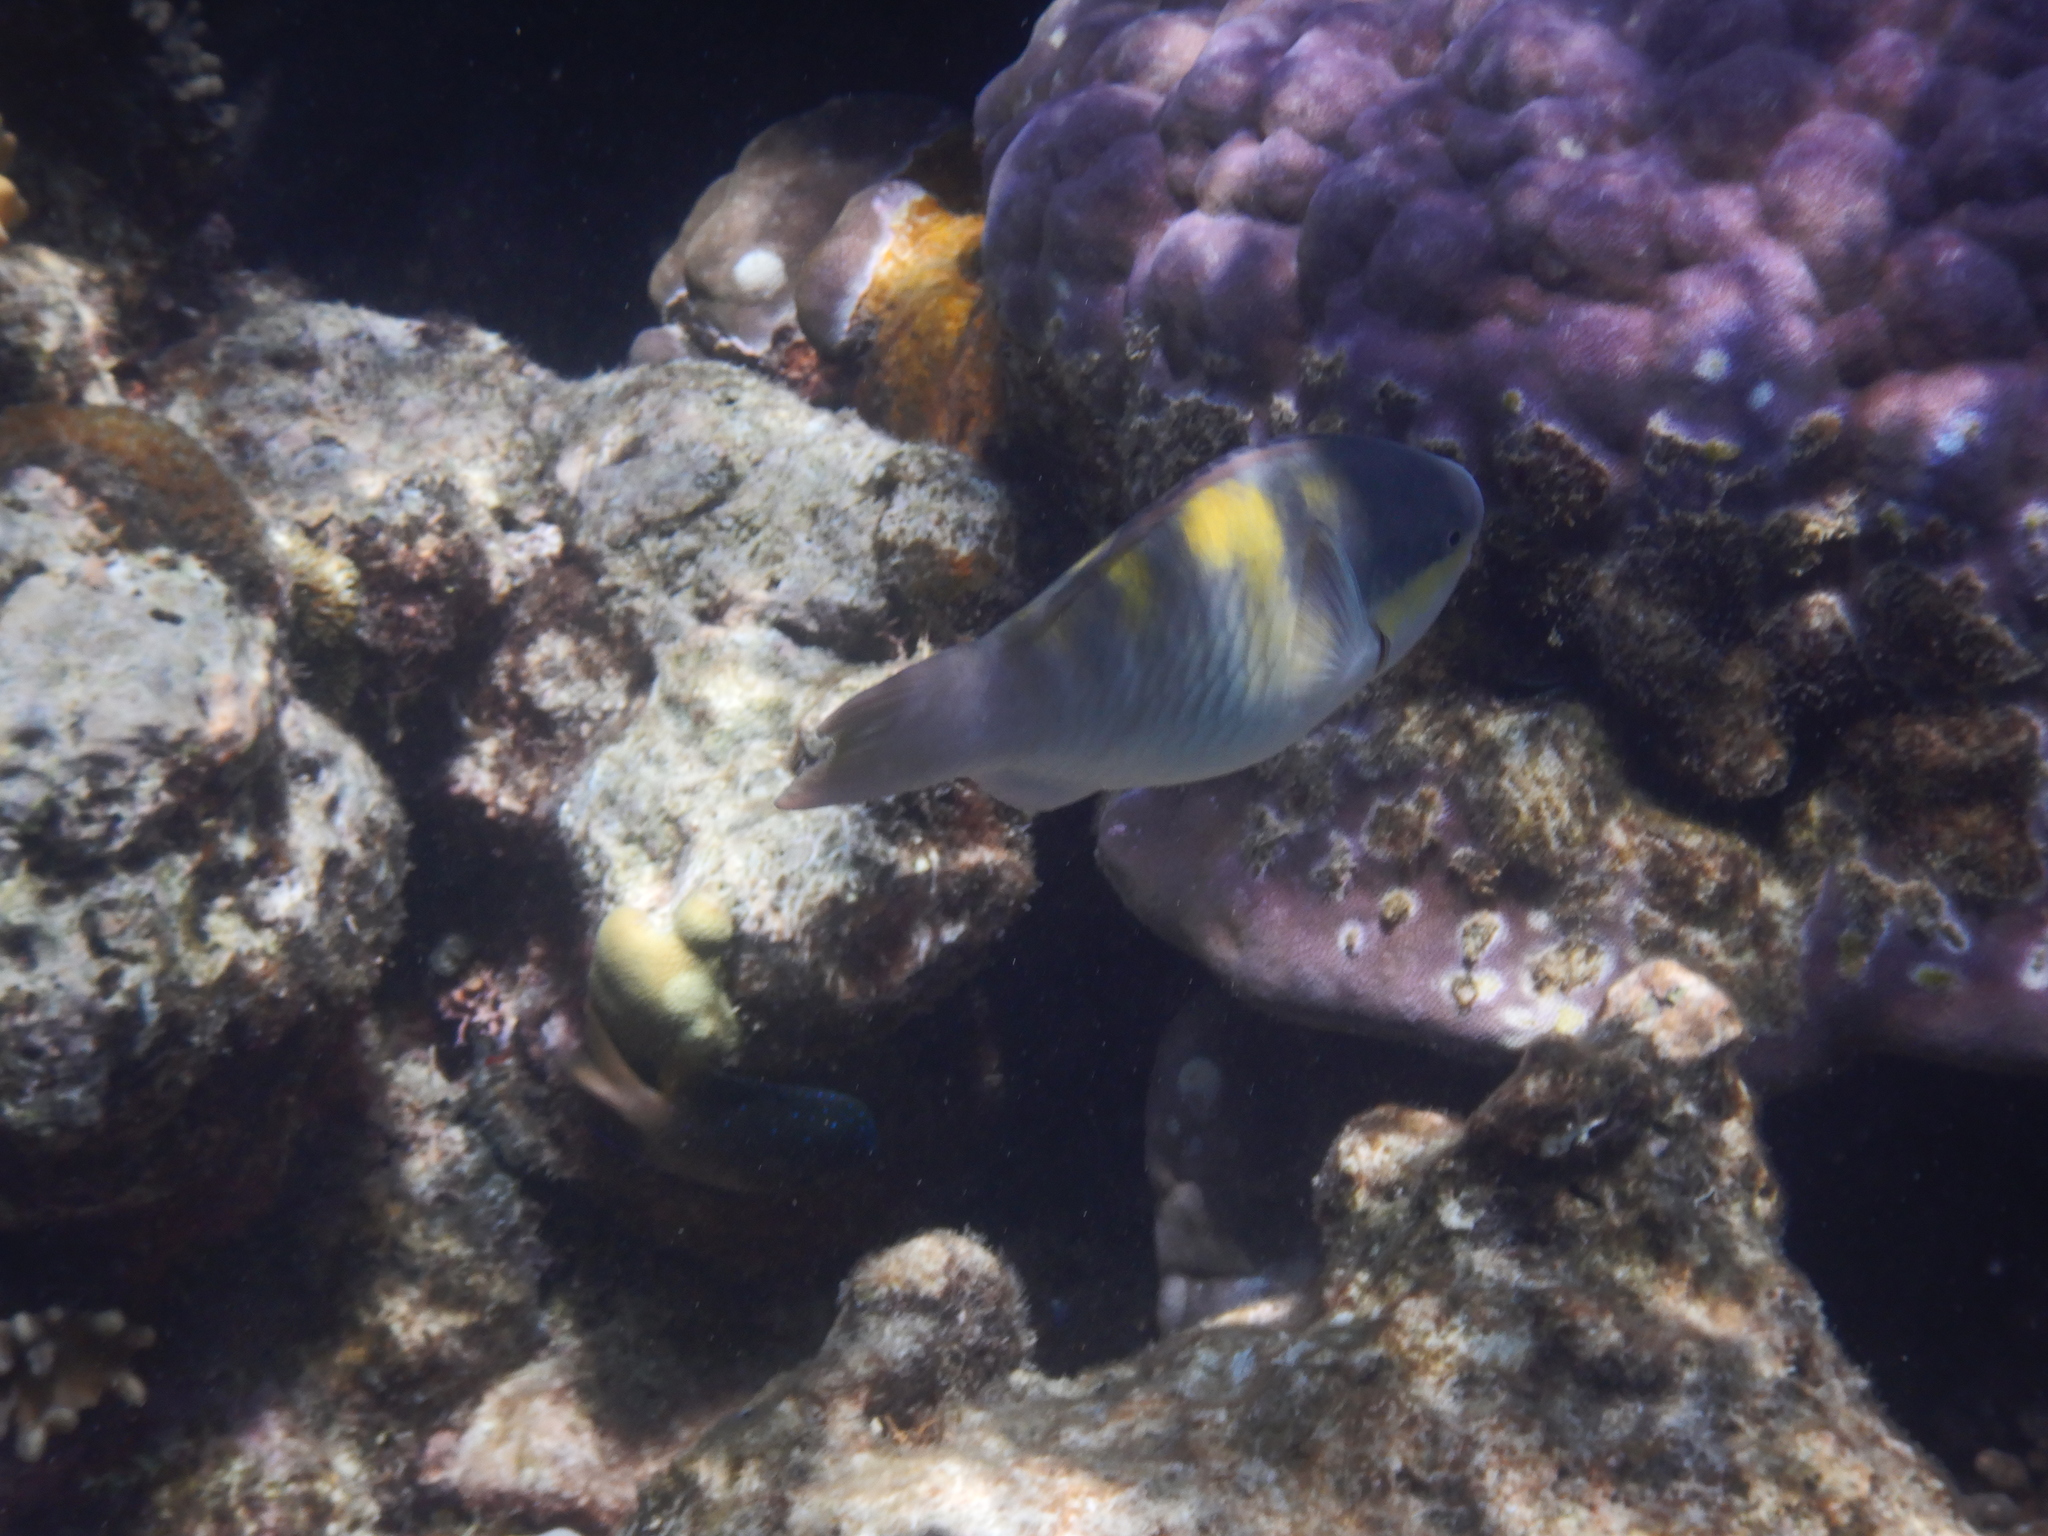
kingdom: Animalia
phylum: Chordata
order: Perciformes
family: Scaridae
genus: Scarus
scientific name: Scarus dimidiatus
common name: Yellowbarred parrotfish
